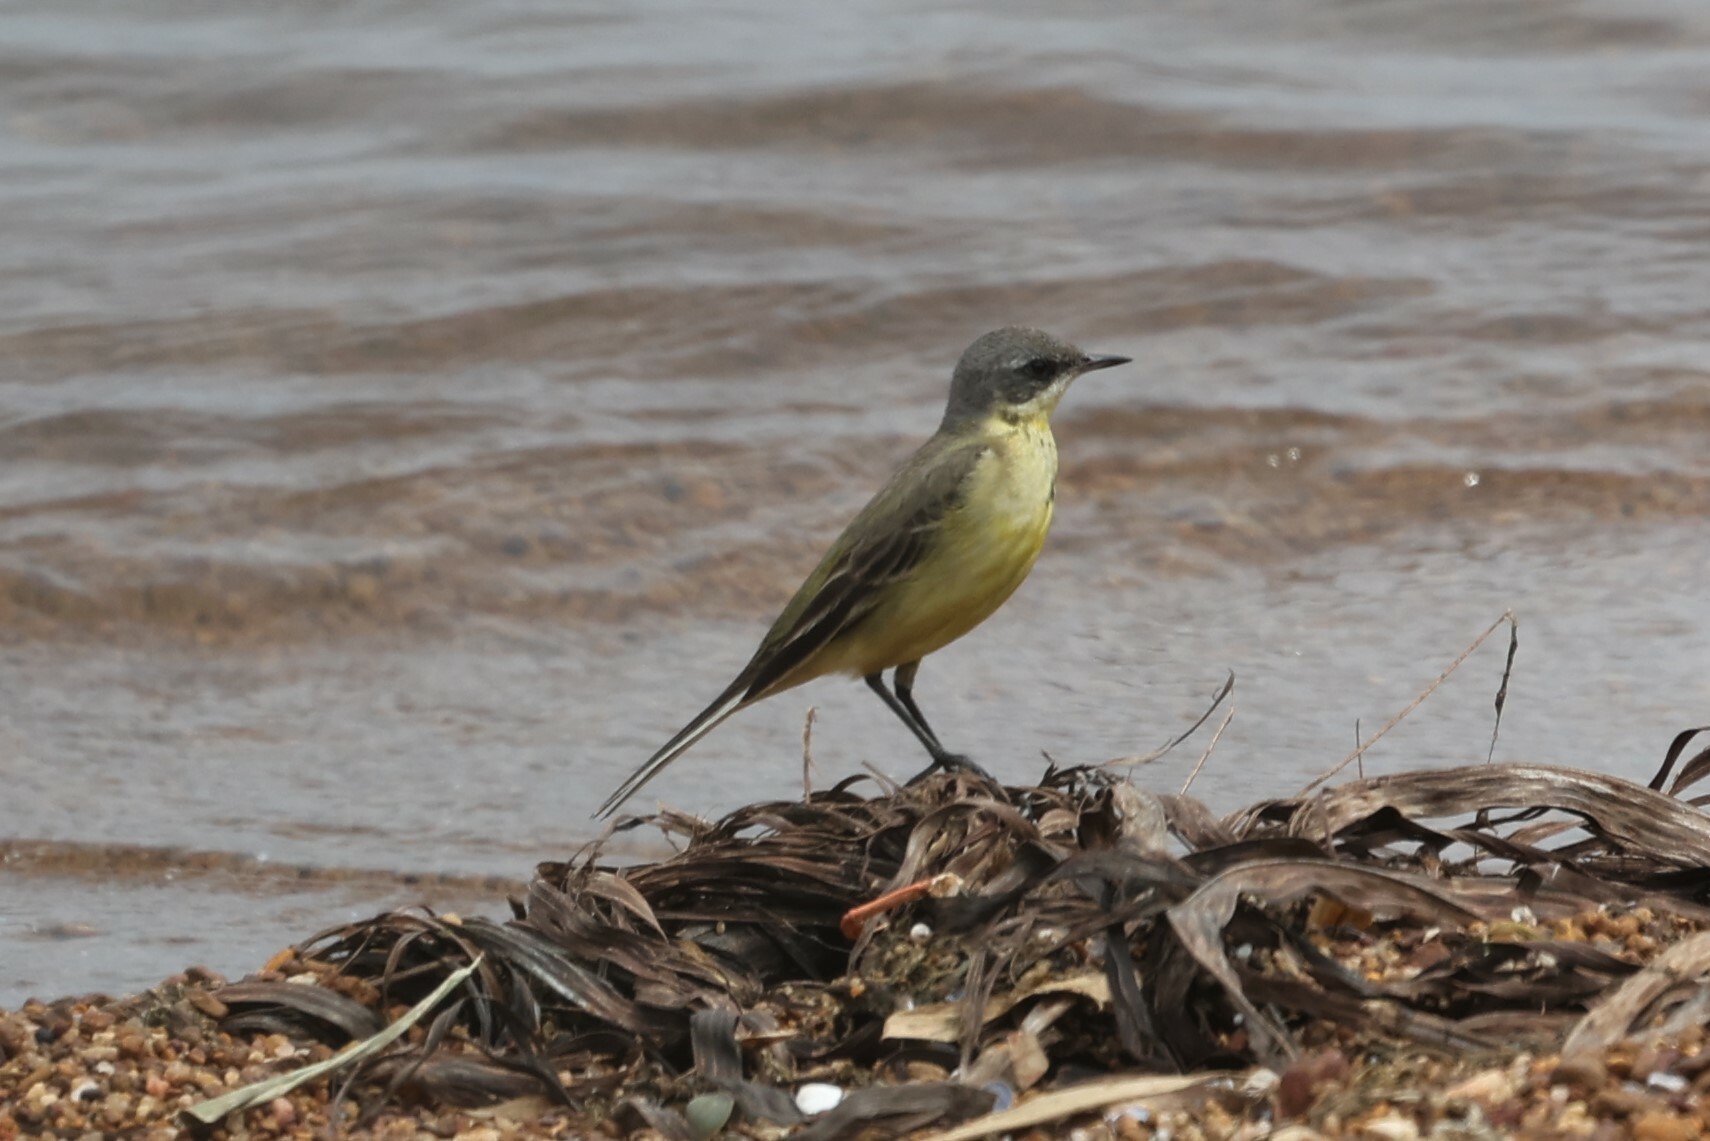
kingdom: Animalia
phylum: Chordata
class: Aves
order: Passeriformes
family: Motacillidae
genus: Motacilla
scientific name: Motacilla flava
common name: Western yellow wagtail
